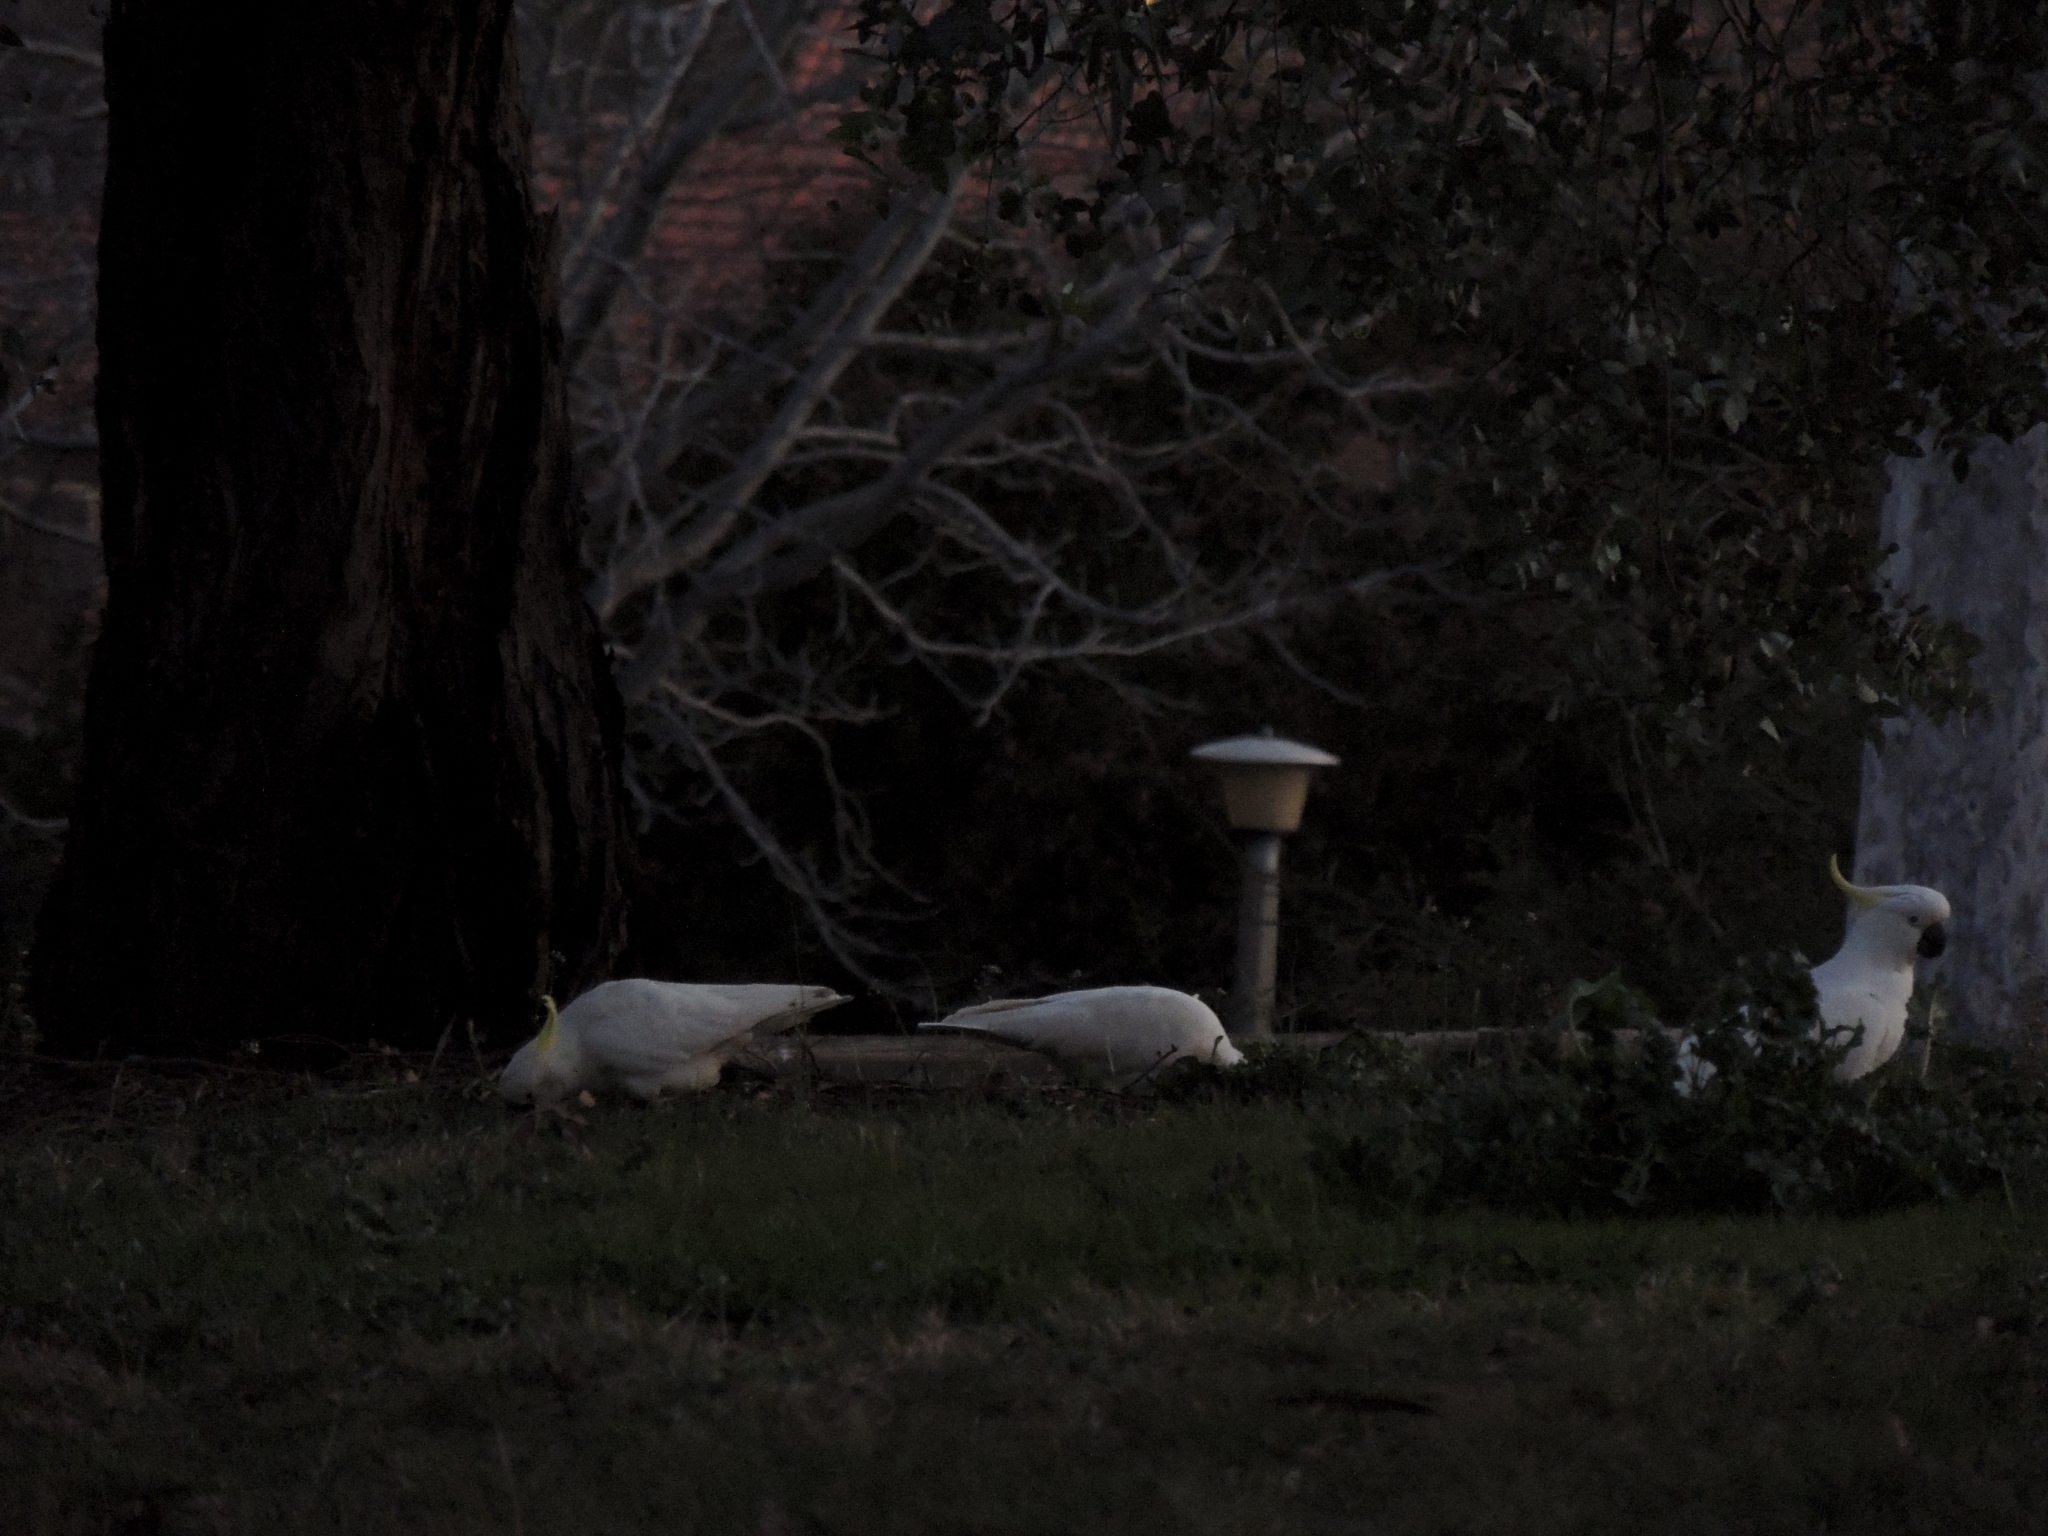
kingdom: Animalia
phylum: Chordata
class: Aves
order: Psittaciformes
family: Psittacidae
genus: Cacatua
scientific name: Cacatua galerita
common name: Sulphur-crested cockatoo
